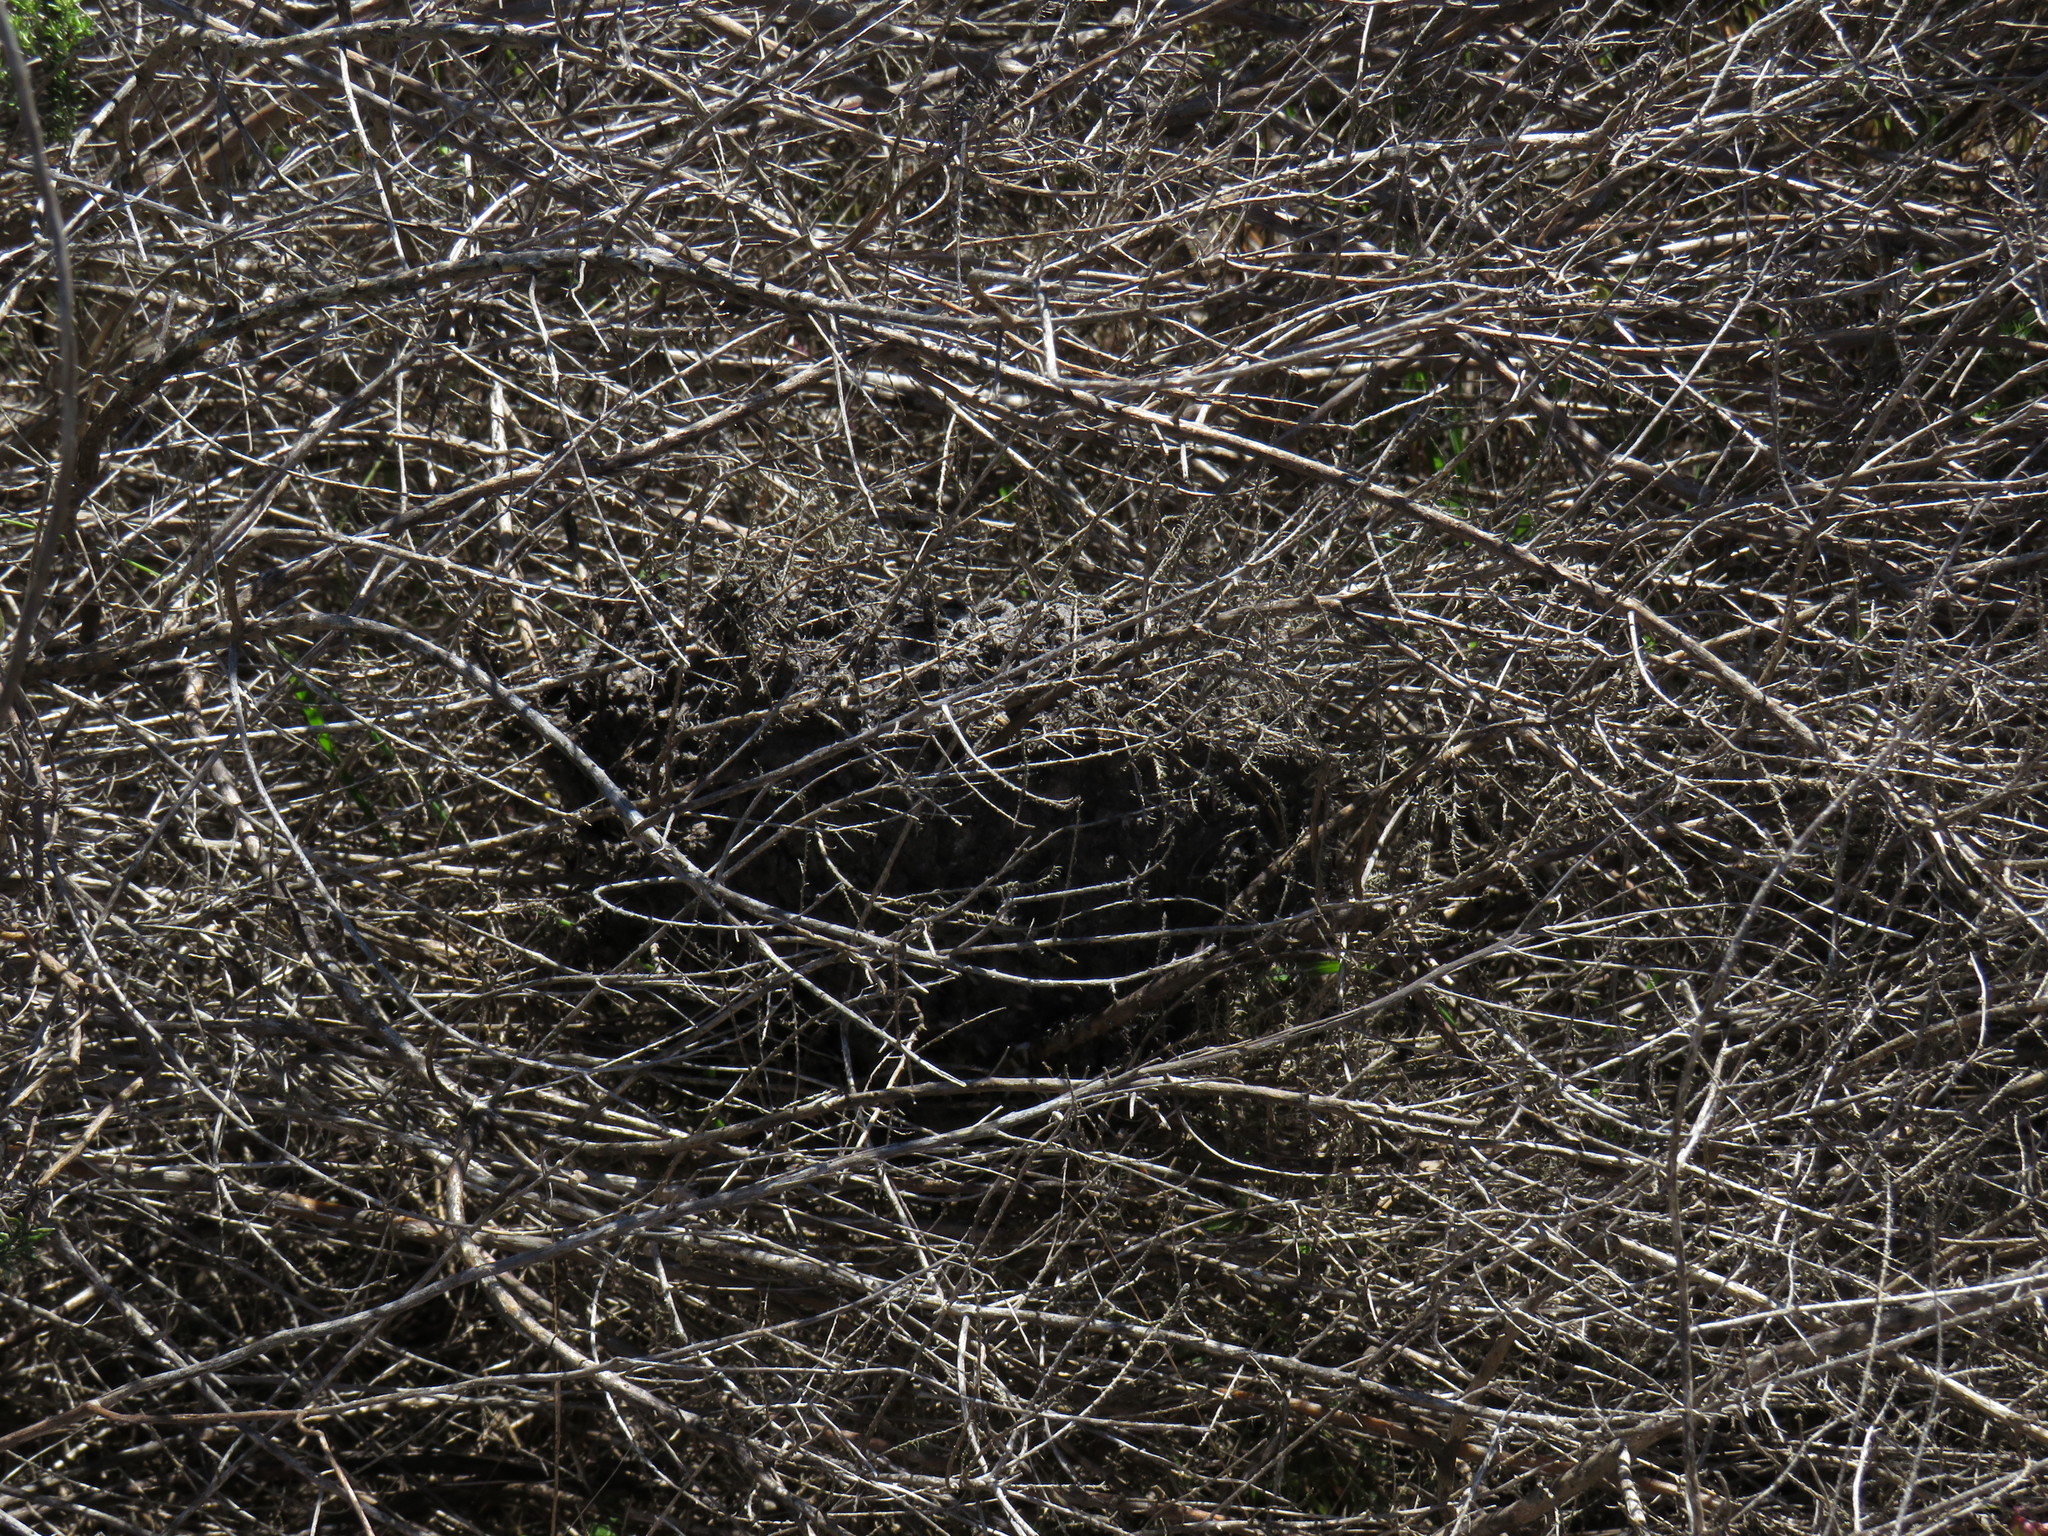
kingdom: Animalia
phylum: Arthropoda
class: Insecta
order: Hymenoptera
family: Formicidae
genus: Crematogaster
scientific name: Crematogaster peringueyi
